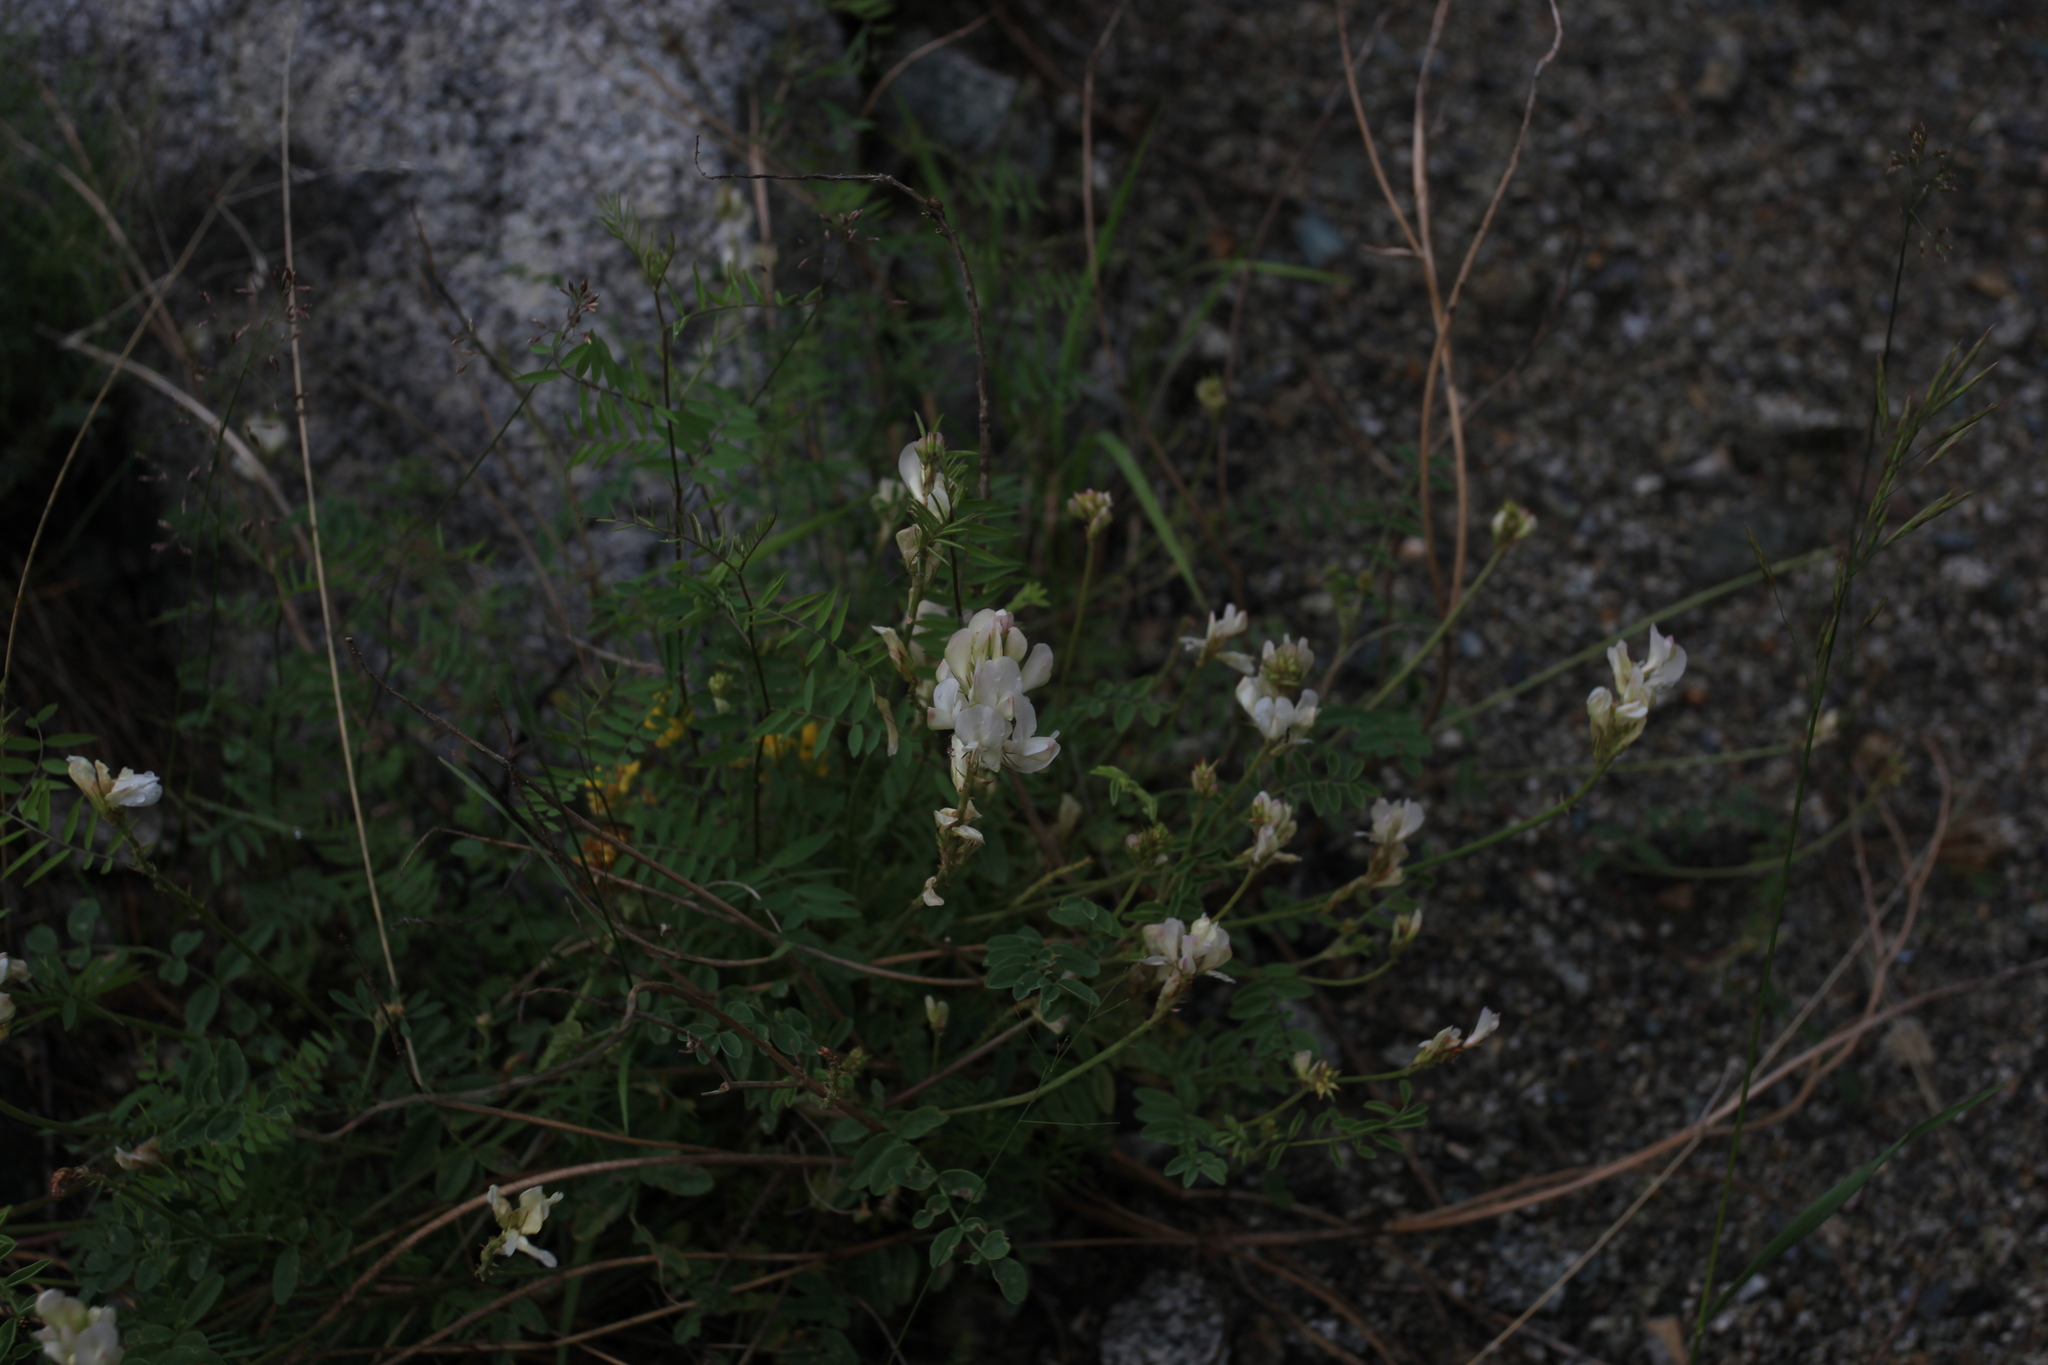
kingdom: Plantae
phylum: Tracheophyta
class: Magnoliopsida
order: Fabales
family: Fabaceae
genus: Hedysarum
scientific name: Hedysarum gmelinii
